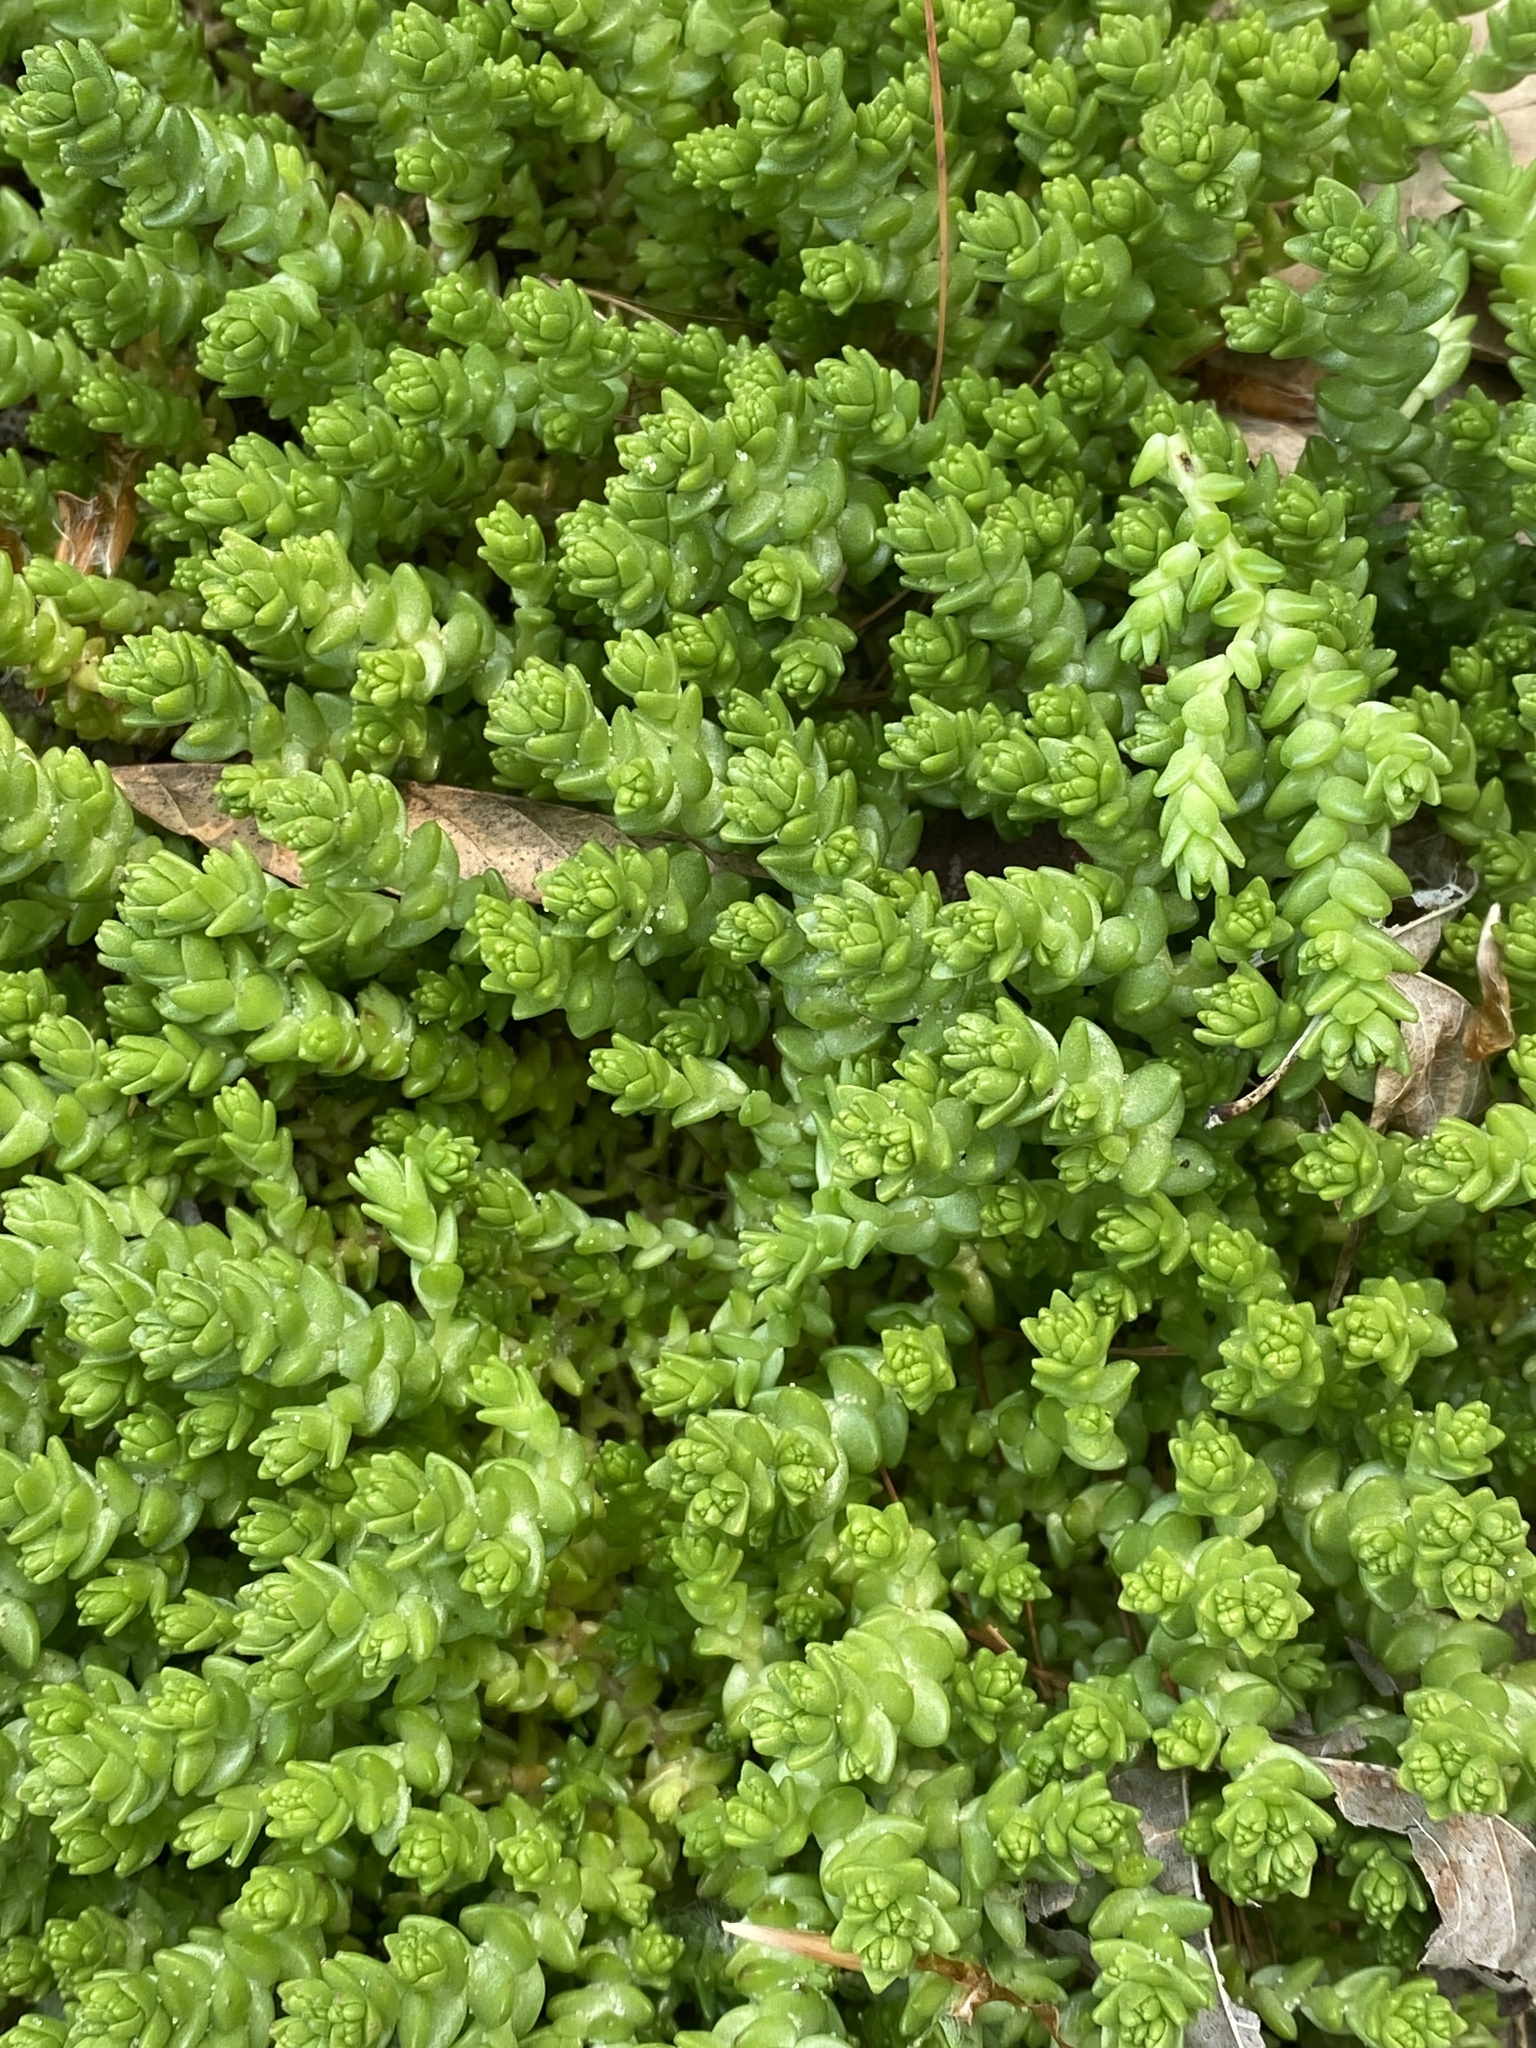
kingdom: Plantae
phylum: Tracheophyta
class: Magnoliopsida
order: Saxifragales
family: Crassulaceae
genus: Sedum
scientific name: Sedum acre
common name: Biting stonecrop
